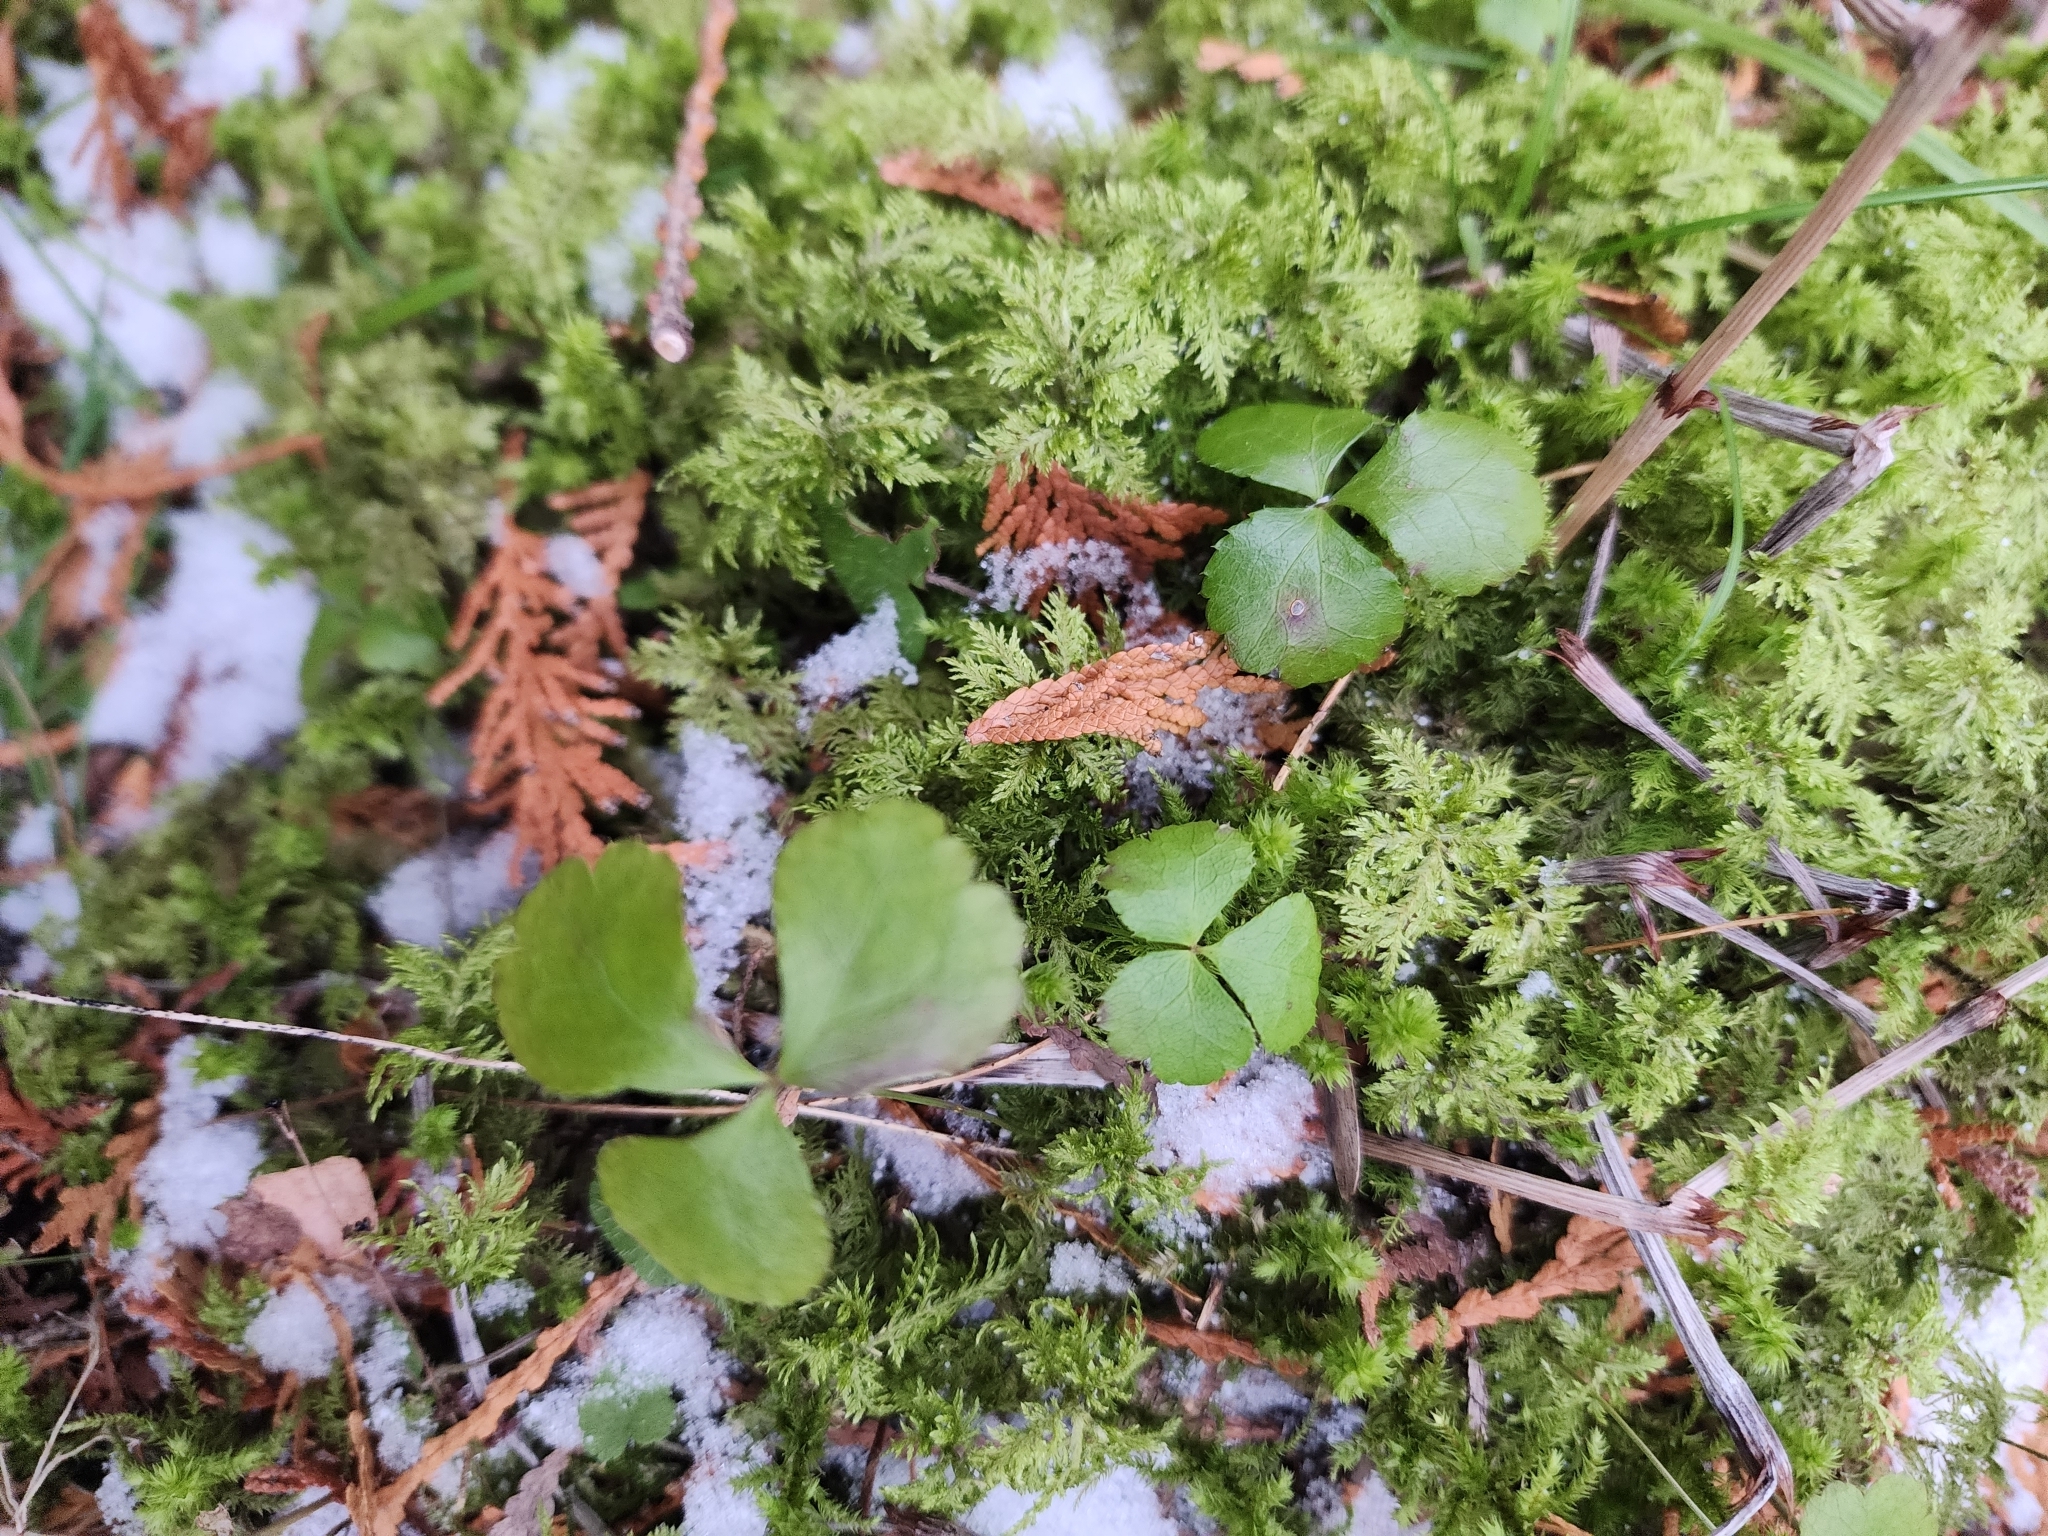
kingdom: Plantae
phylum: Tracheophyta
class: Magnoliopsida
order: Ranunculales
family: Ranunculaceae
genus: Coptis
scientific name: Coptis trifolia
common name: Canker-root
